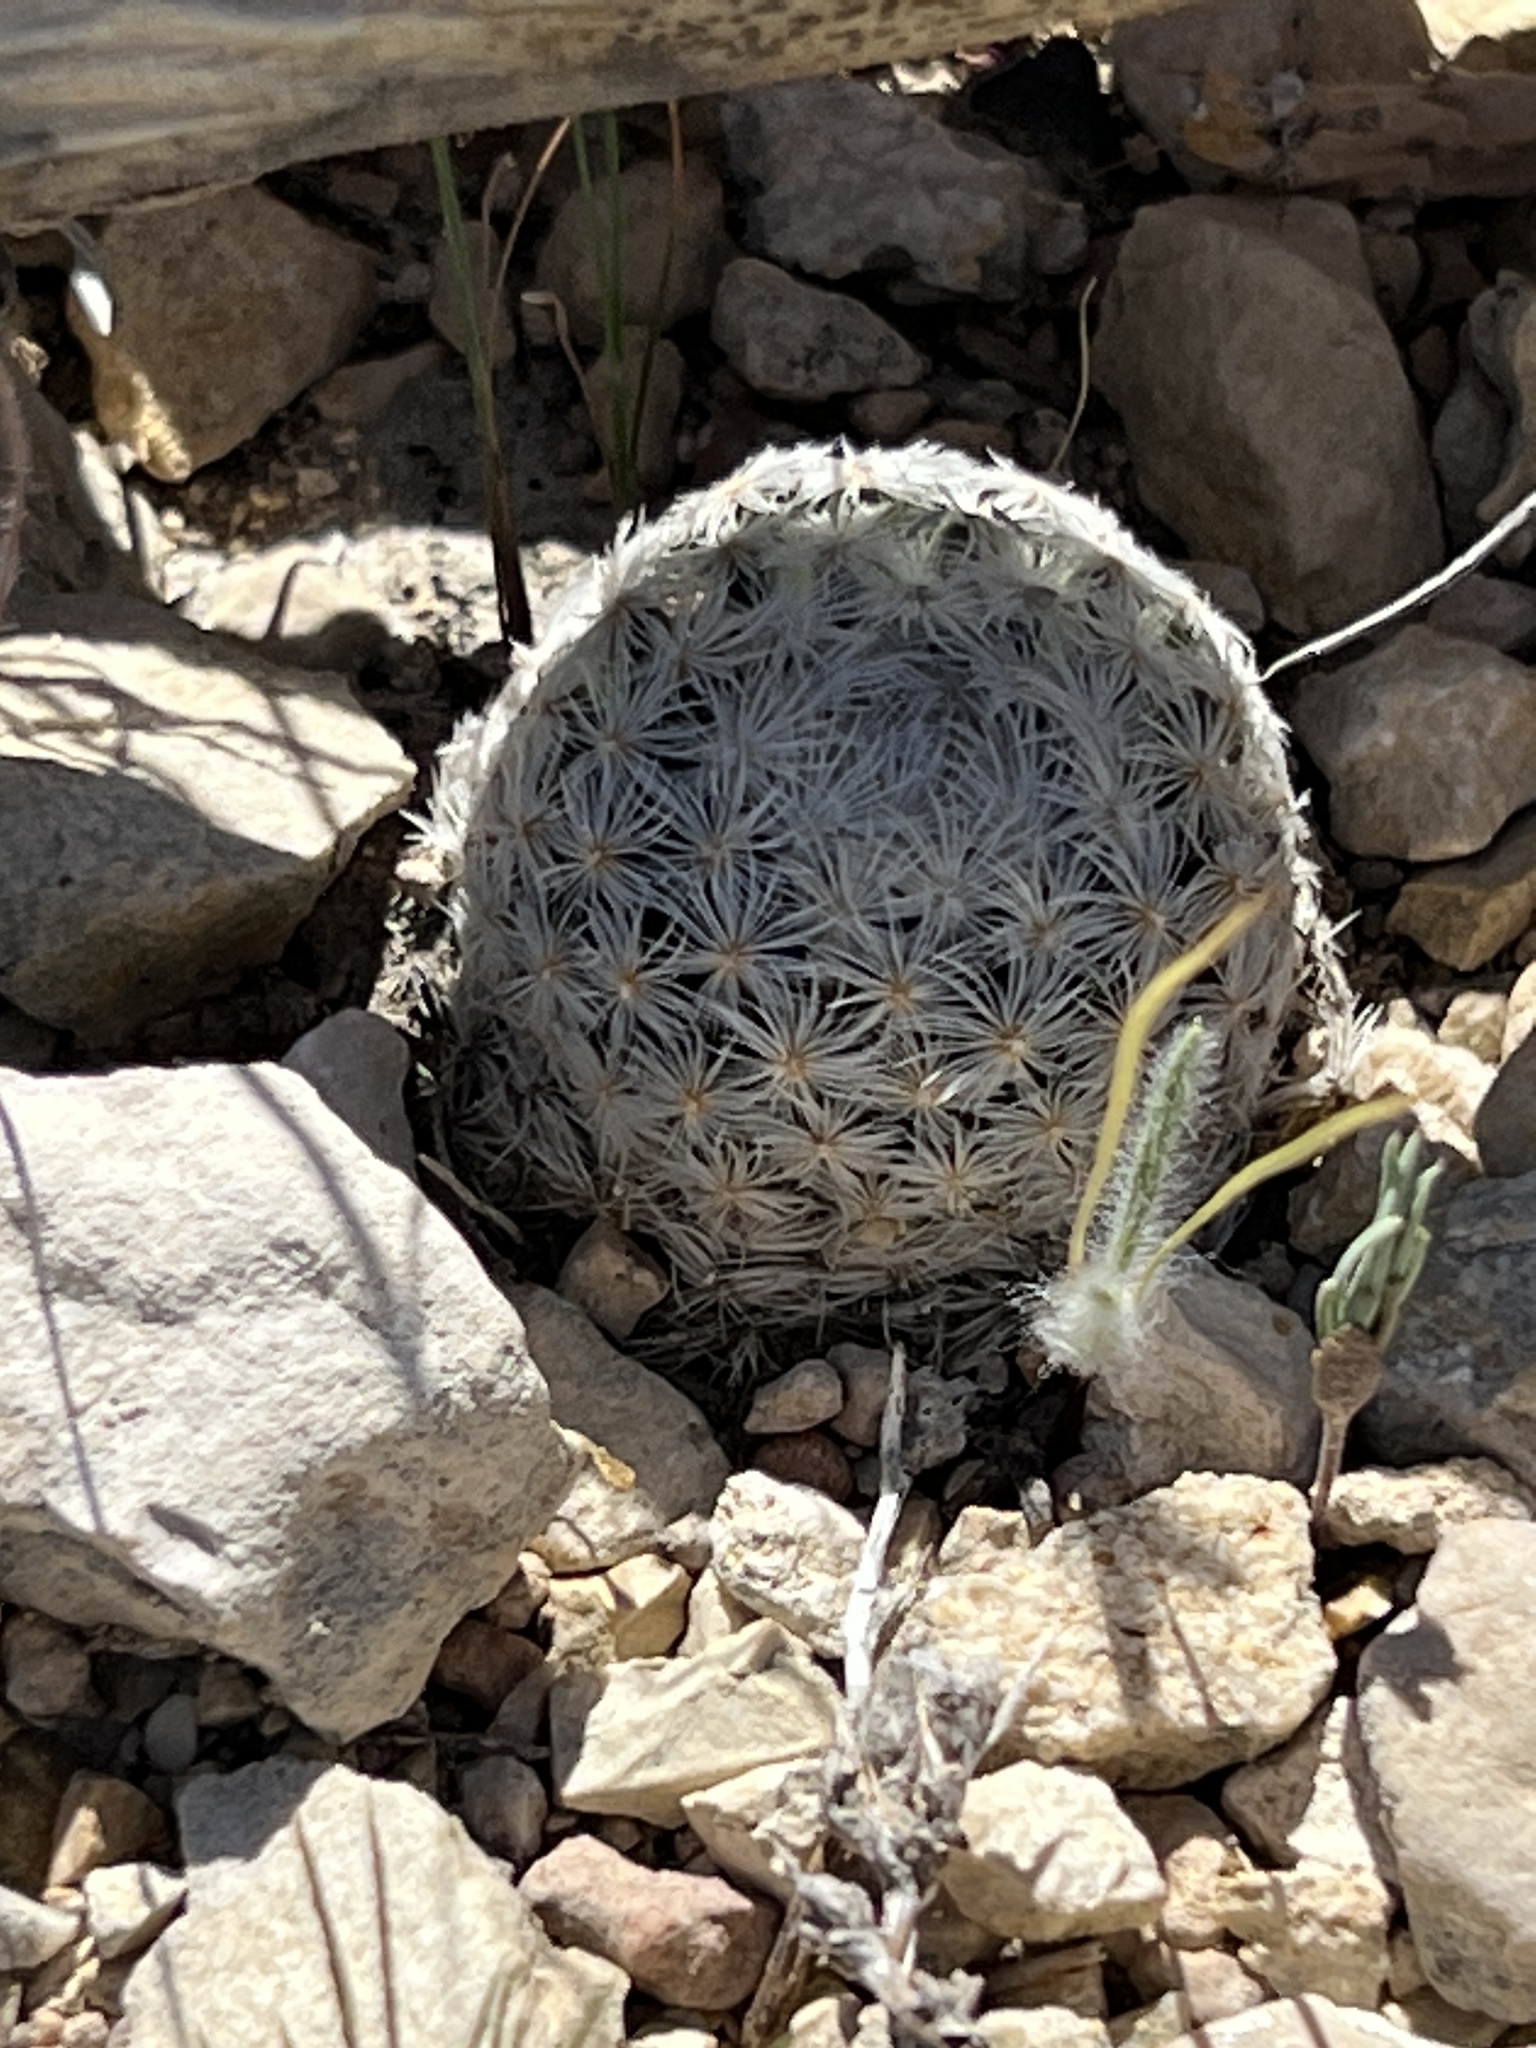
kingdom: Plantae
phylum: Tracheophyta
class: Magnoliopsida
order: Caryophyllales
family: Cactaceae
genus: Mammillaria
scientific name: Mammillaria lasiacantha
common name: Lace-spine nipple cactus
